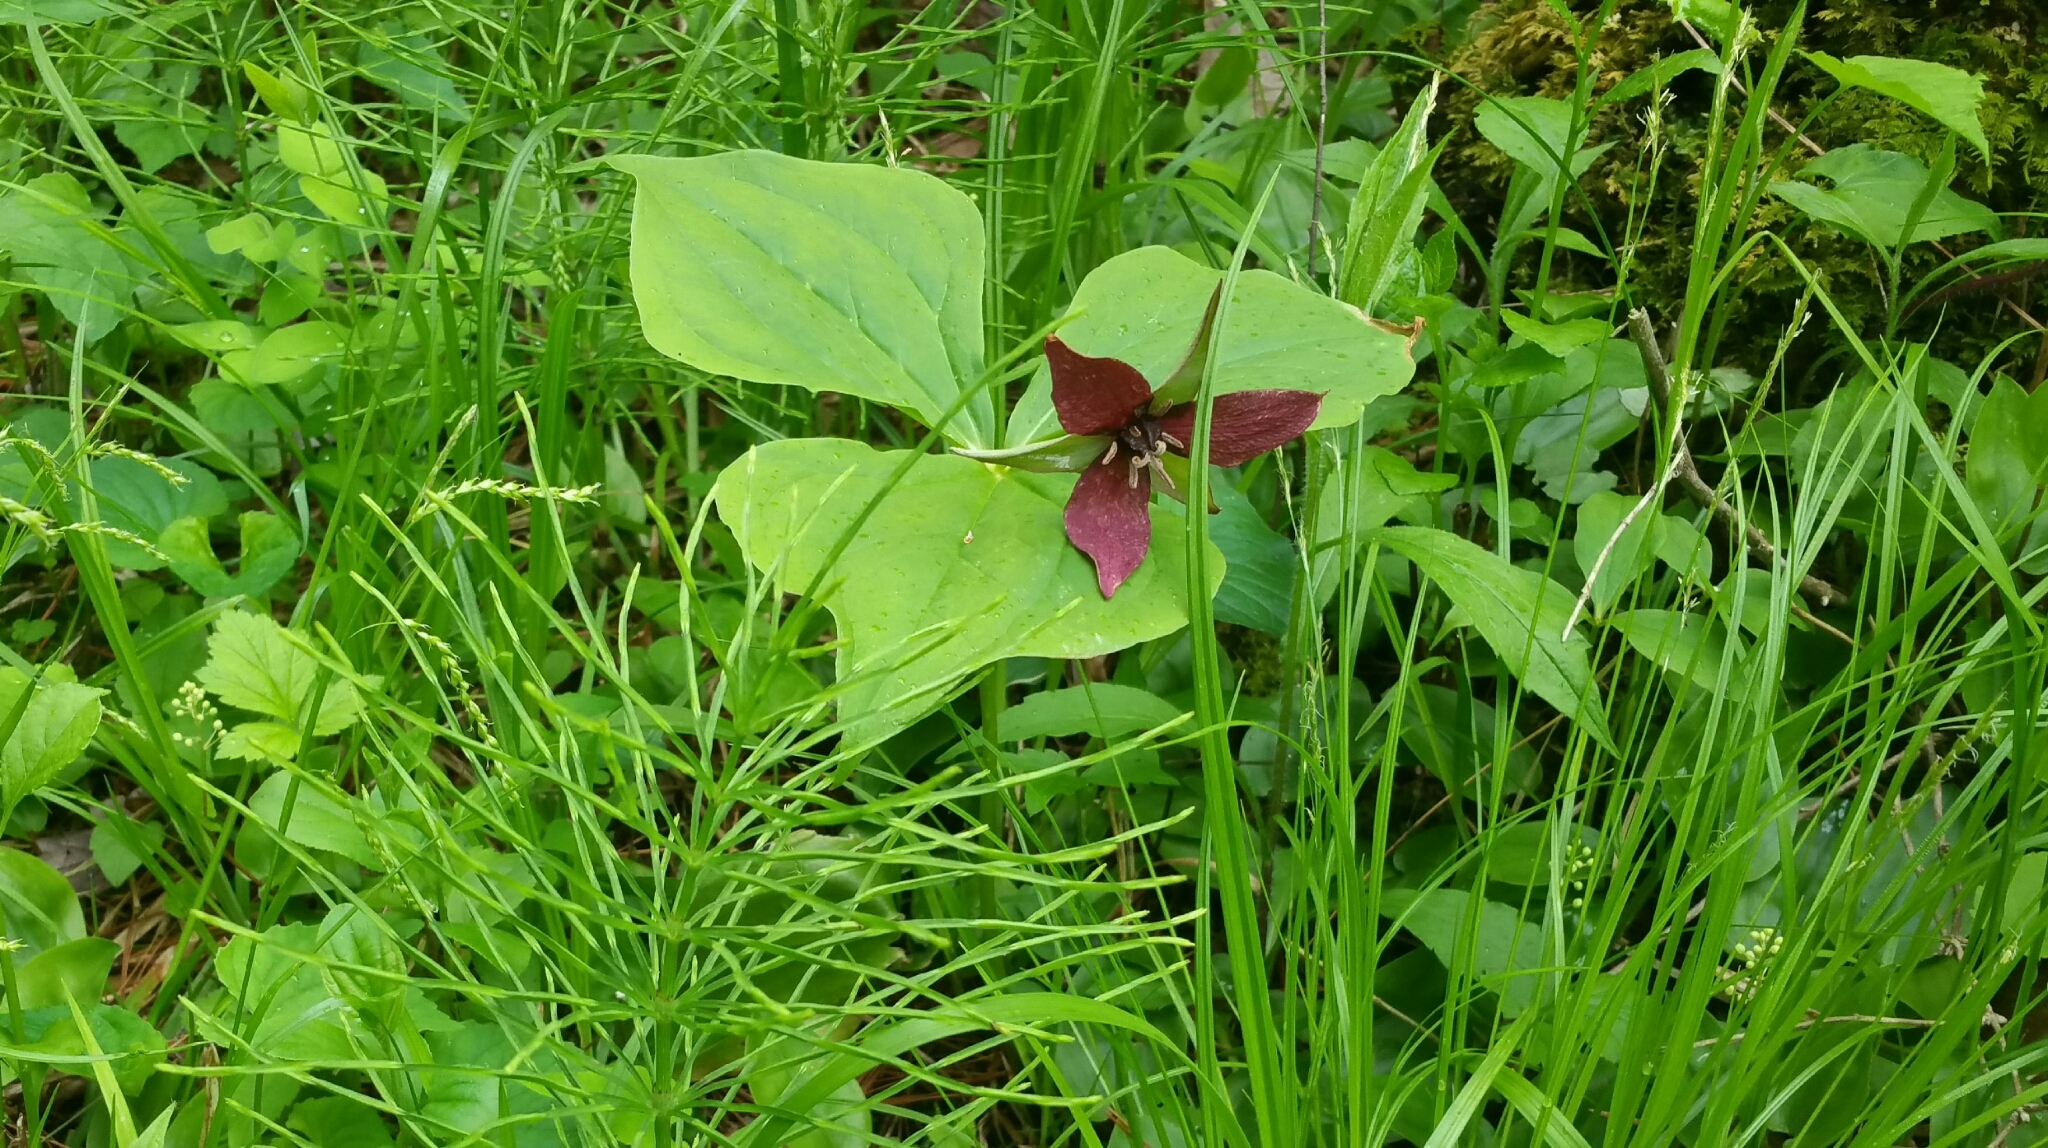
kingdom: Plantae
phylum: Tracheophyta
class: Liliopsida
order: Liliales
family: Melanthiaceae
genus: Trillium
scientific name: Trillium erectum
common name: Purple trillium
